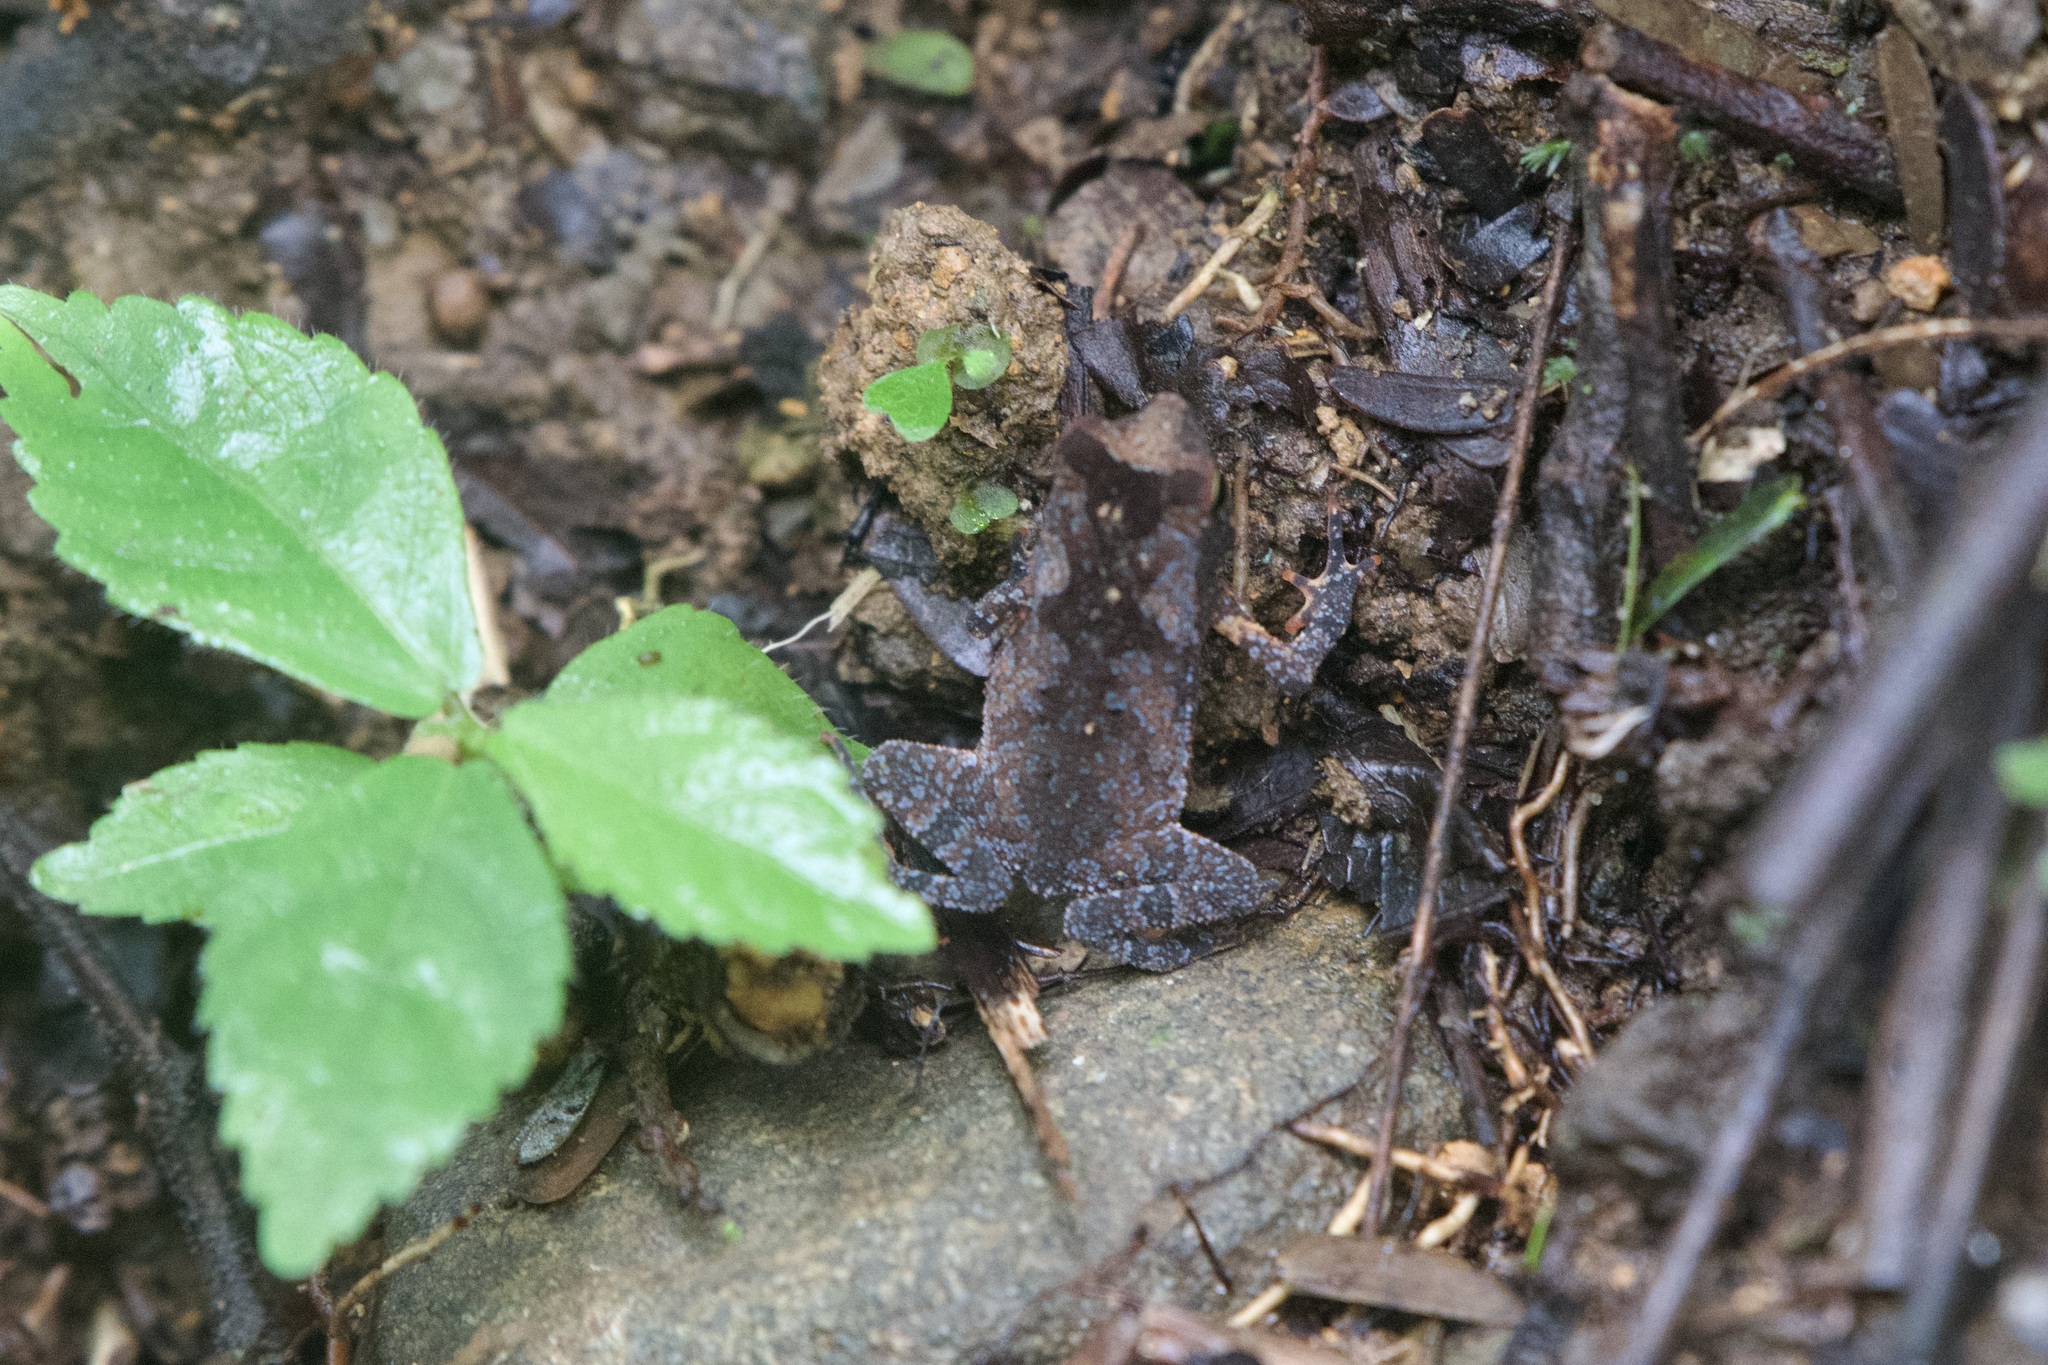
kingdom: Animalia
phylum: Chordata
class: Amphibia
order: Anura
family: Bufonidae
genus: Rhinella
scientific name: Rhinella alata
